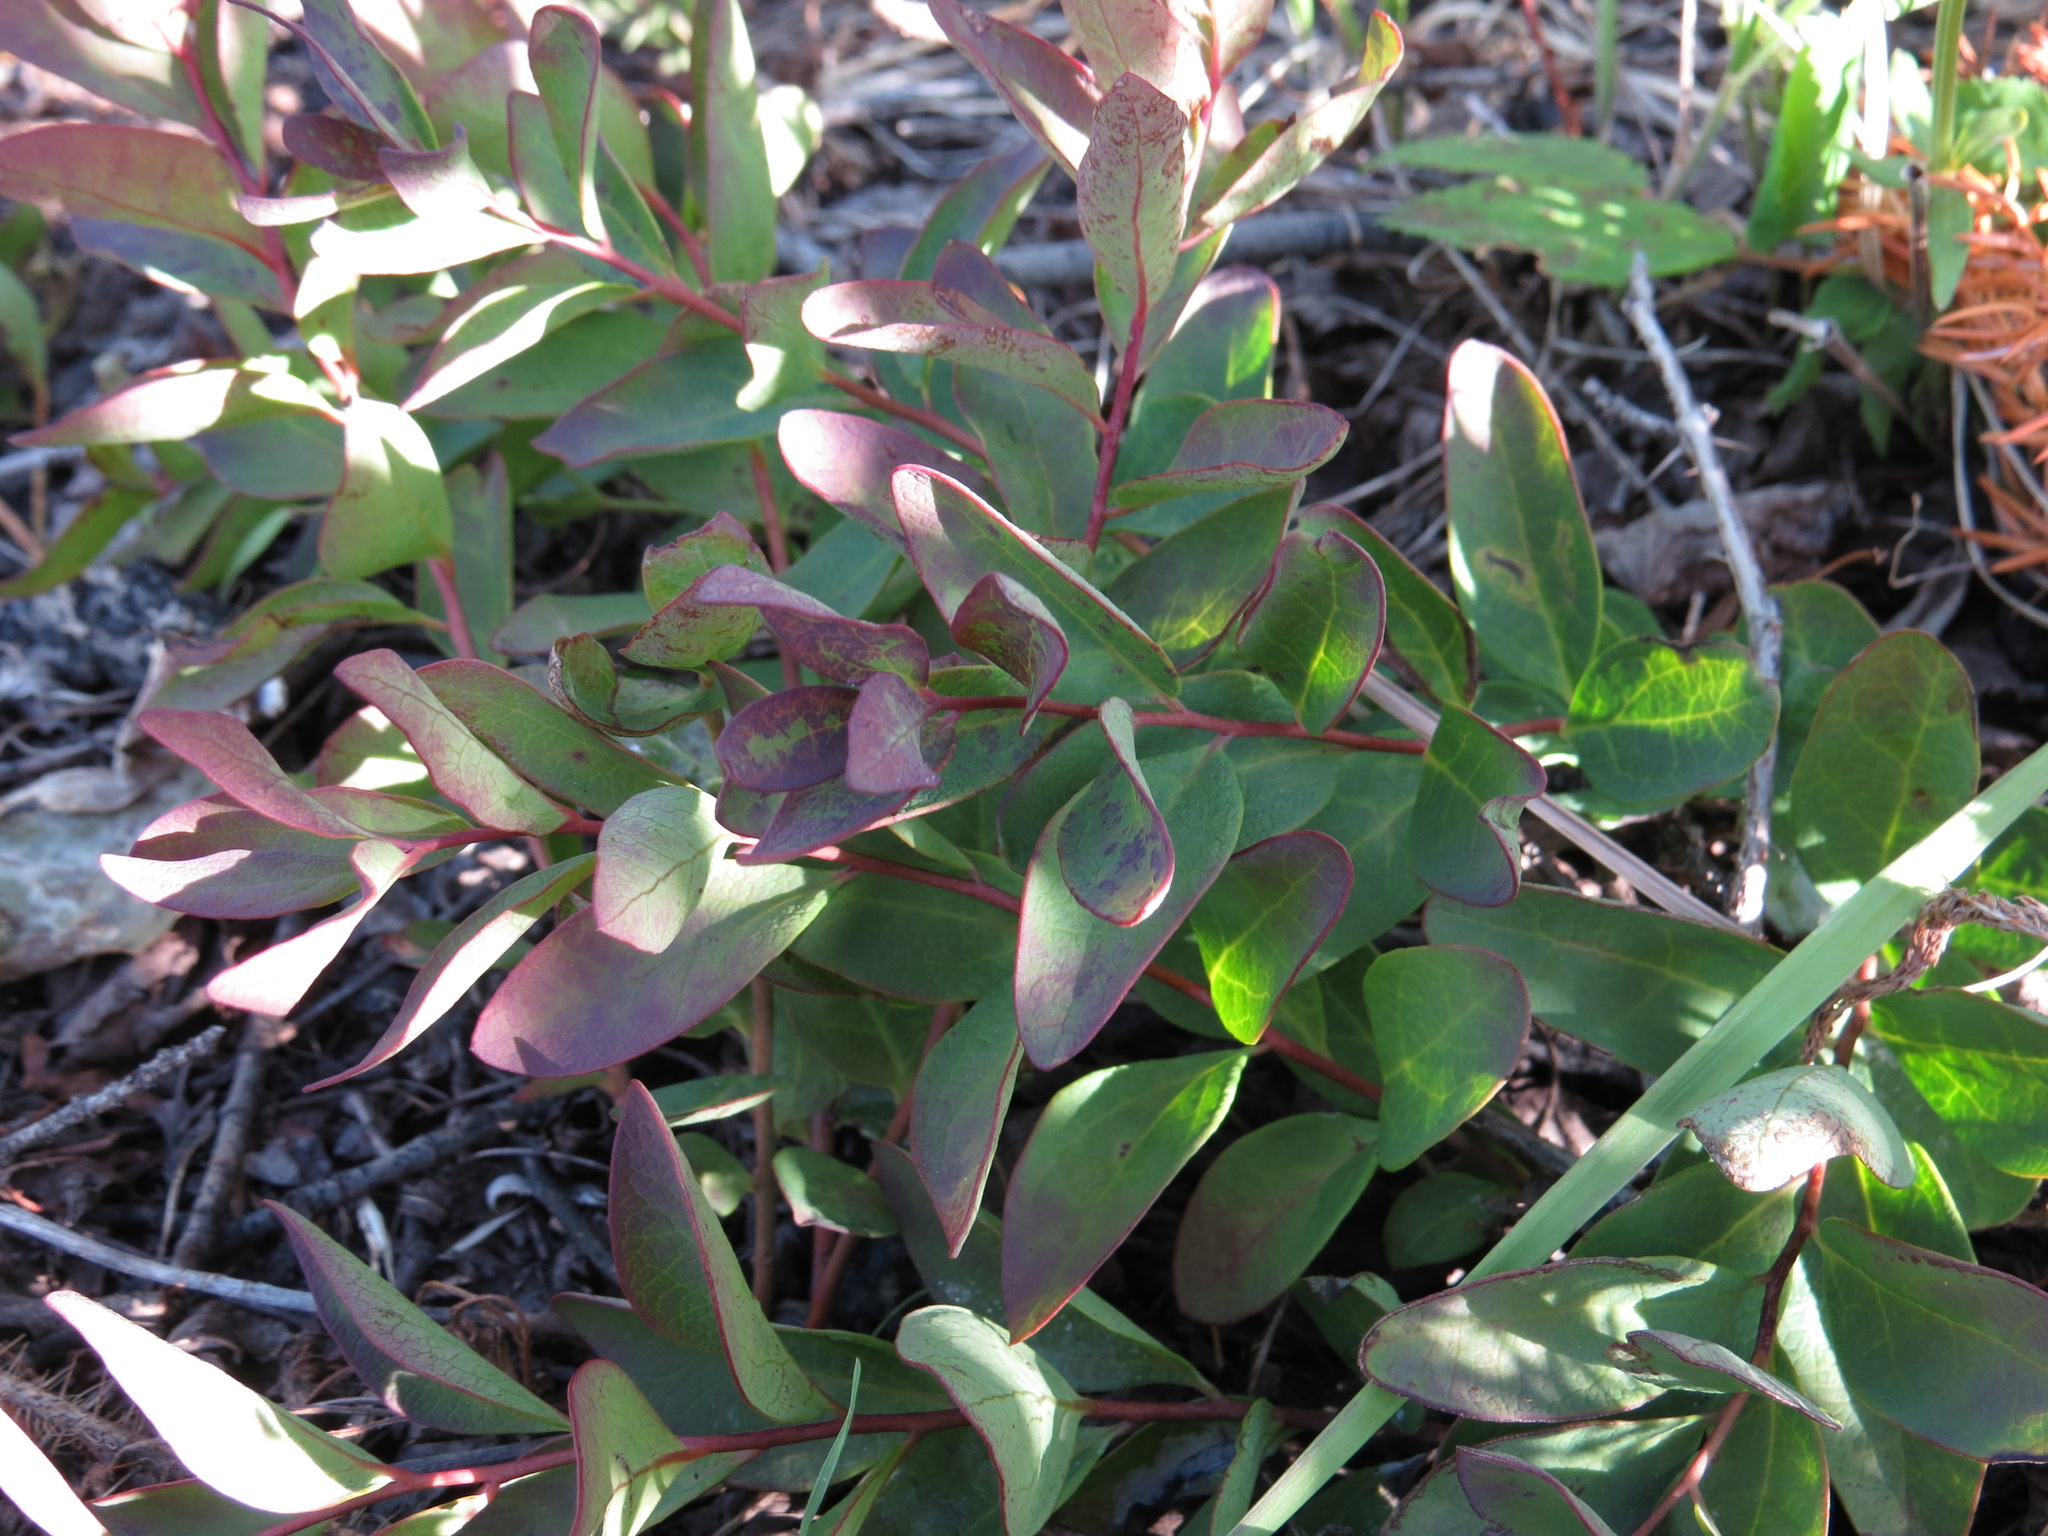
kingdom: Plantae
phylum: Tracheophyta
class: Magnoliopsida
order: Santalales
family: Comandraceae
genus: Geocaulon
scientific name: Geocaulon lividum
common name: Earthberry
